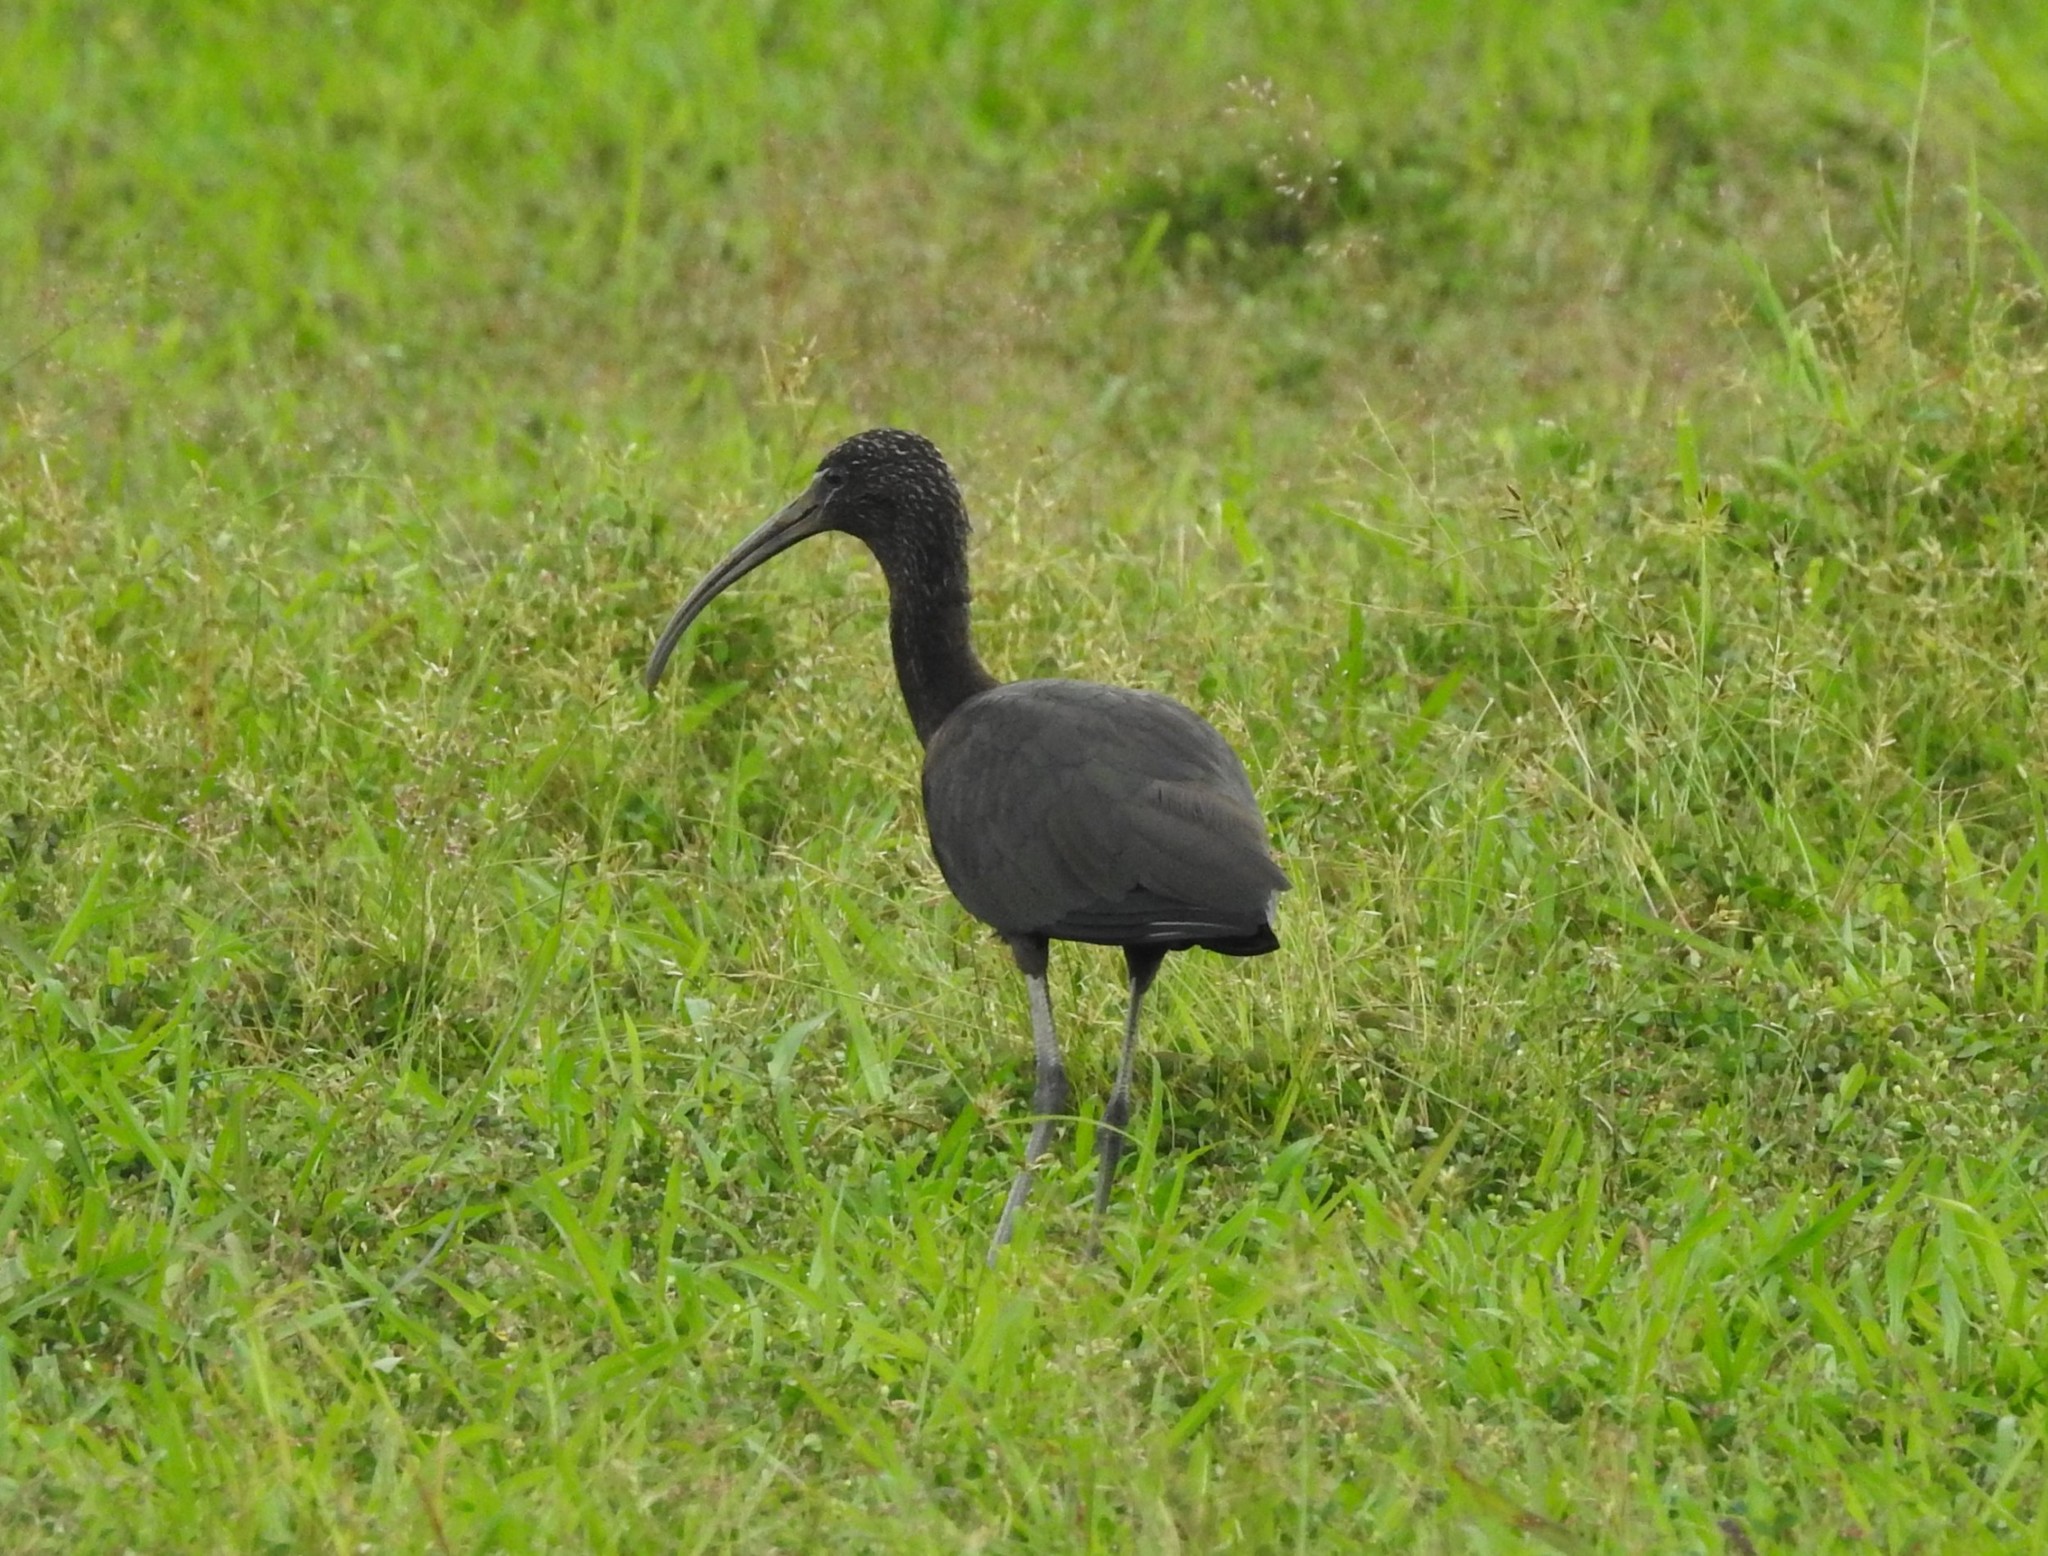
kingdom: Animalia
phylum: Chordata
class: Aves
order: Pelecaniformes
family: Threskiornithidae
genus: Plegadis
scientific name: Plegadis falcinellus
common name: Glossy ibis
